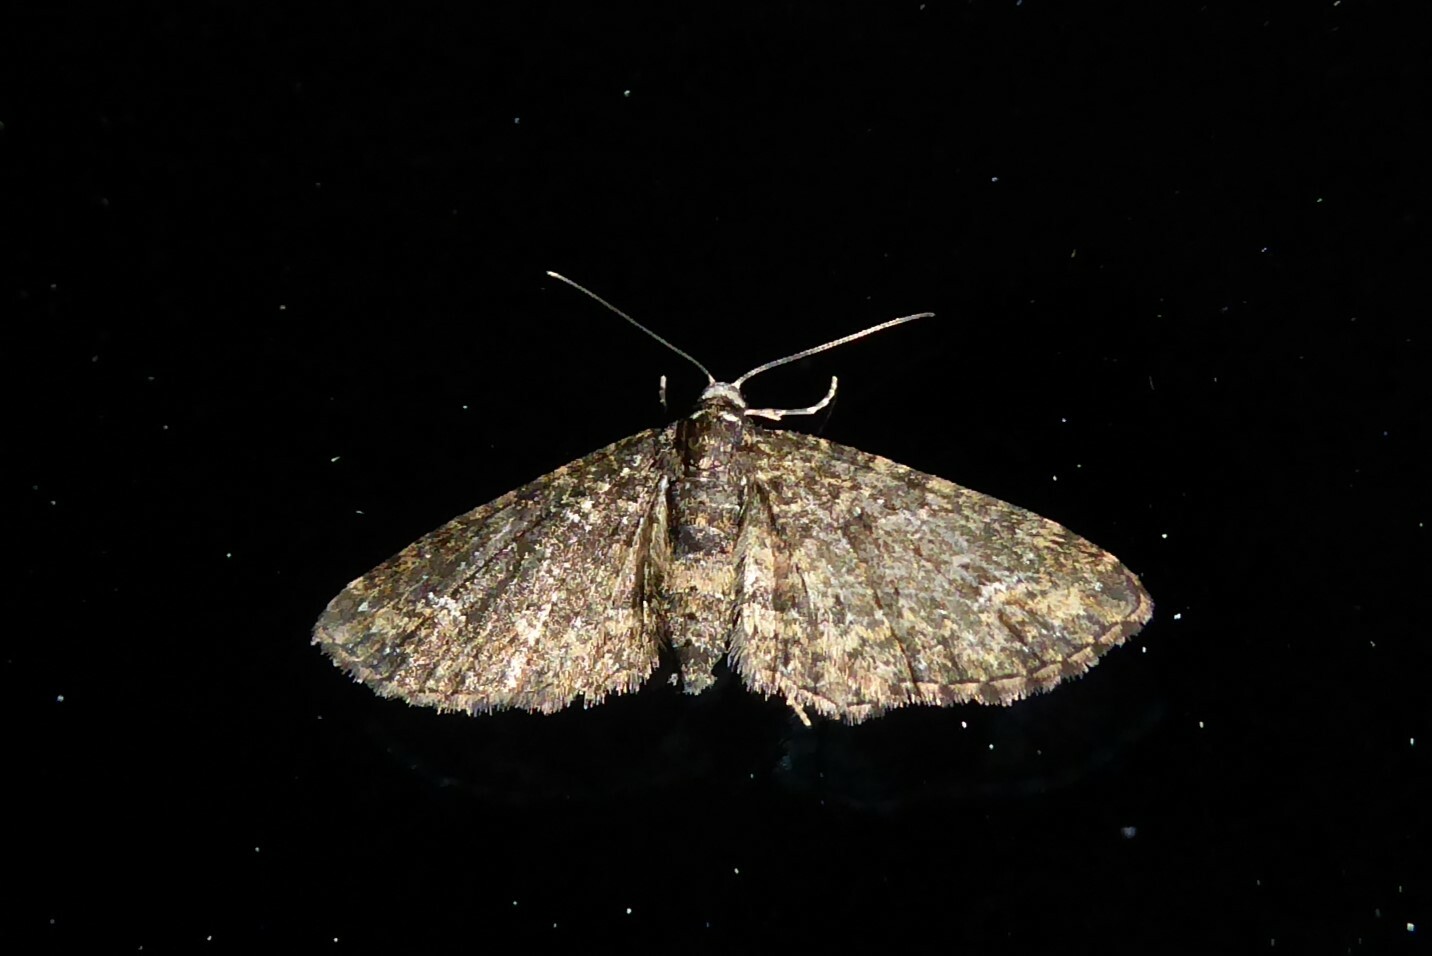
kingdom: Animalia
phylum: Arthropoda
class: Insecta
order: Lepidoptera
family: Geometridae
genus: Pasiphilodes
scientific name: Pasiphilodes testulata
